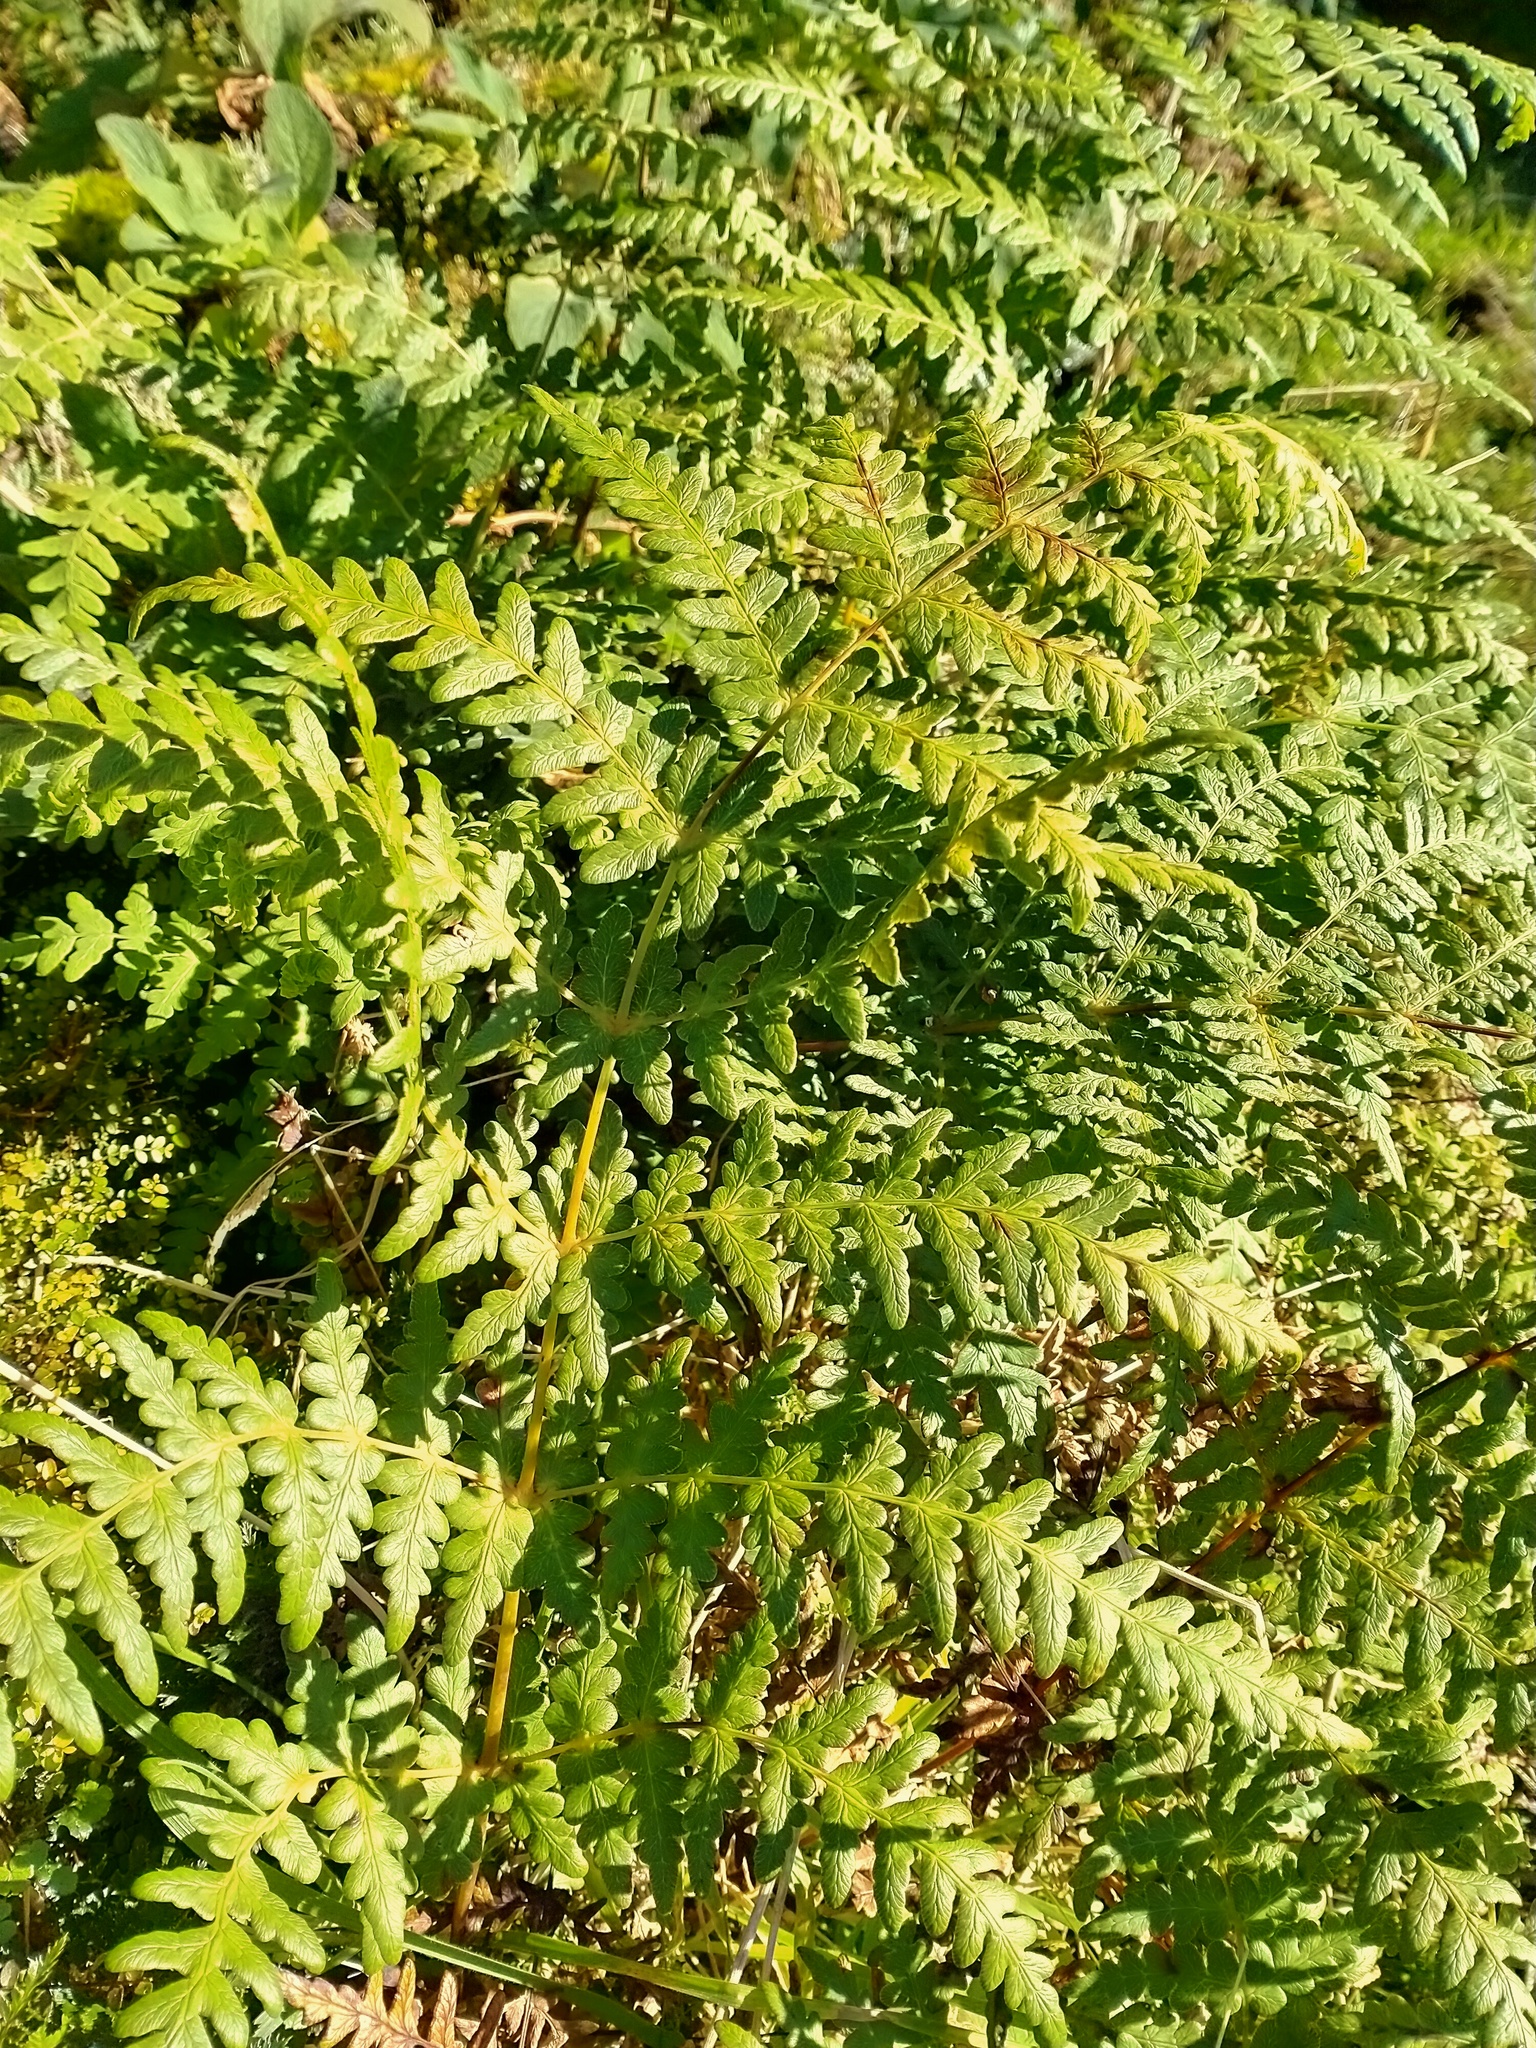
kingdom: Plantae
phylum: Tracheophyta
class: Polypodiopsida
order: Polypodiales
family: Dennstaedtiaceae
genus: Histiopteris
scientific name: Histiopteris incisa
